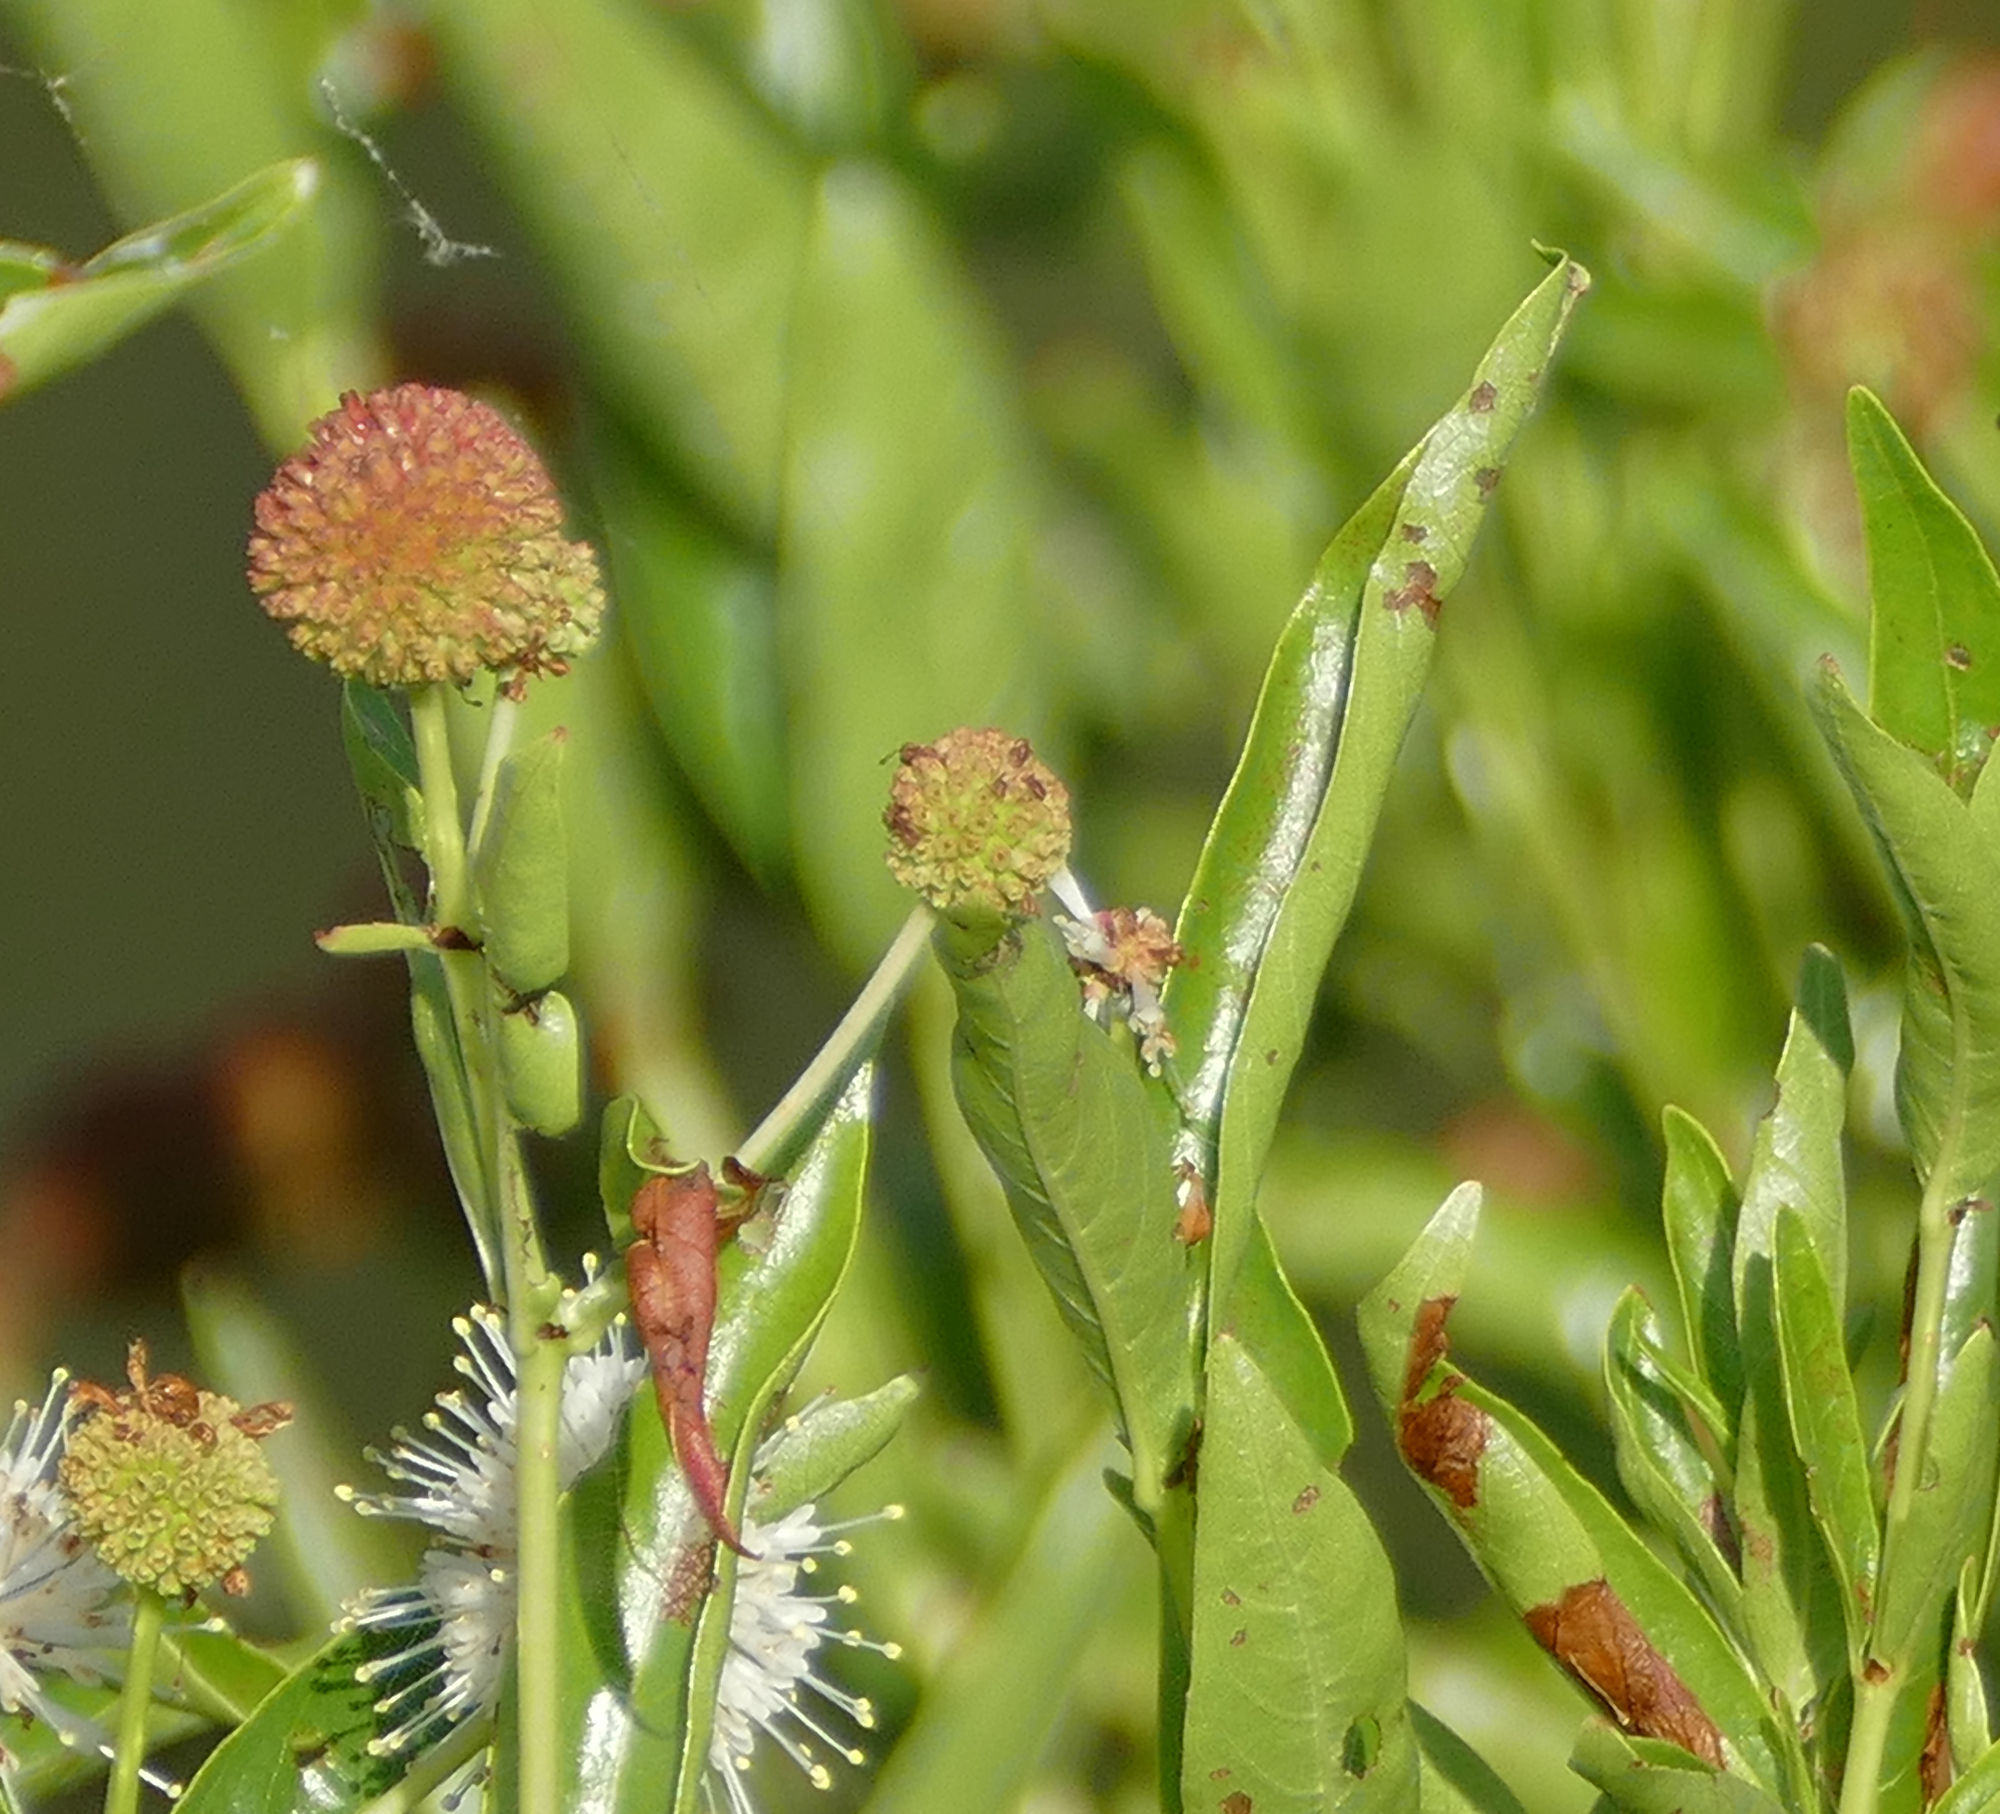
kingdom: Plantae
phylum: Tracheophyta
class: Magnoliopsida
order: Gentianales
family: Rubiaceae
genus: Cephalanthus
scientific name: Cephalanthus occidentalis
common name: Button-willow
